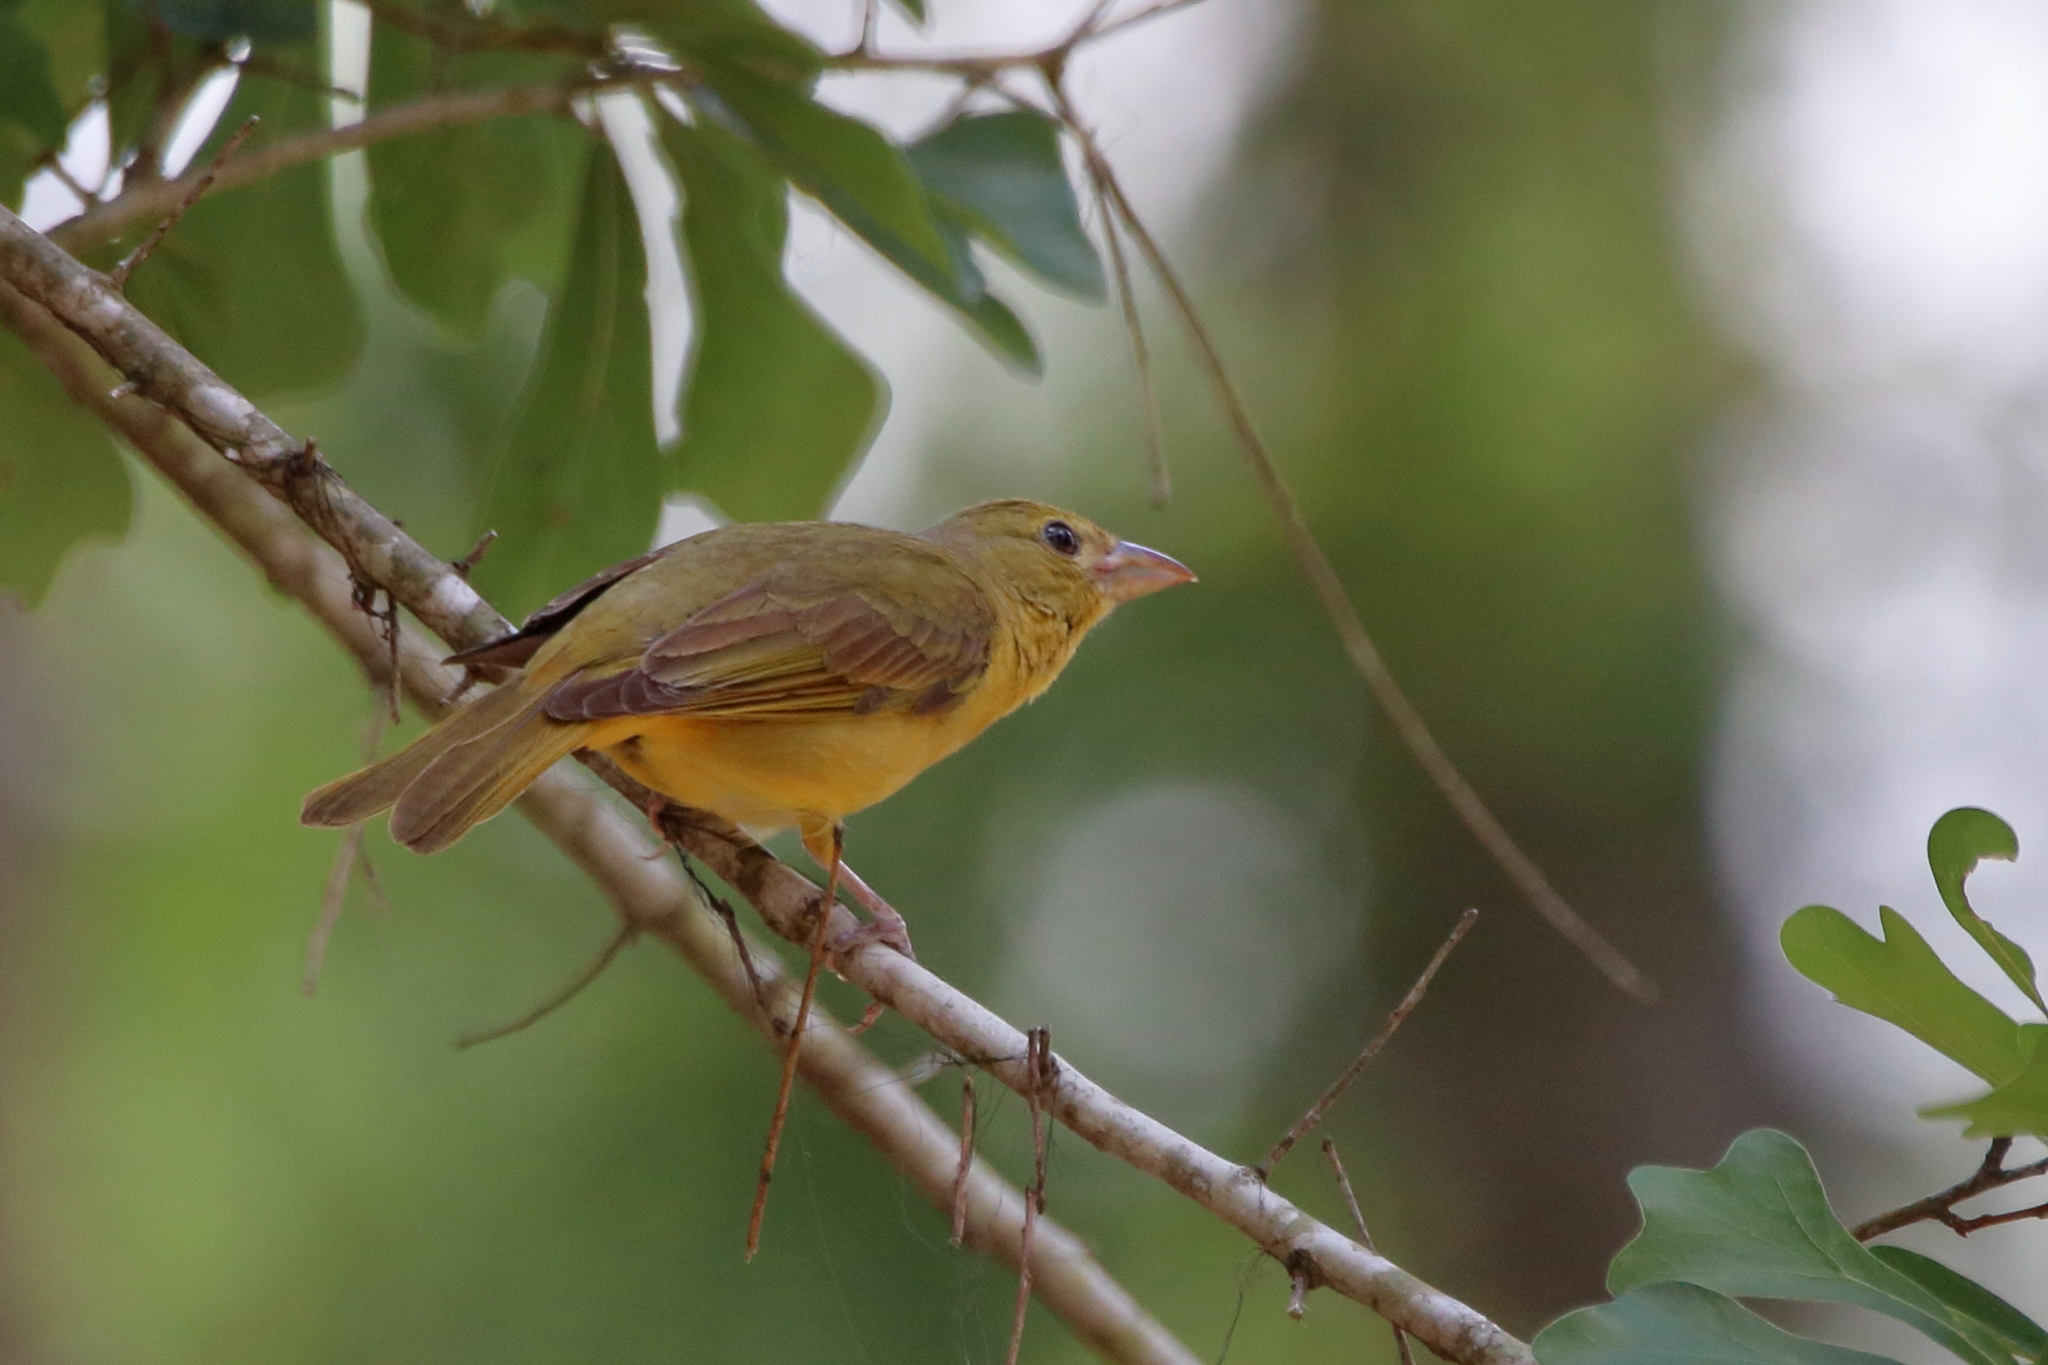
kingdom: Animalia
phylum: Chordata
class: Aves
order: Passeriformes
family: Cardinalidae
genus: Piranga
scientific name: Piranga rubra
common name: Summer tanager
